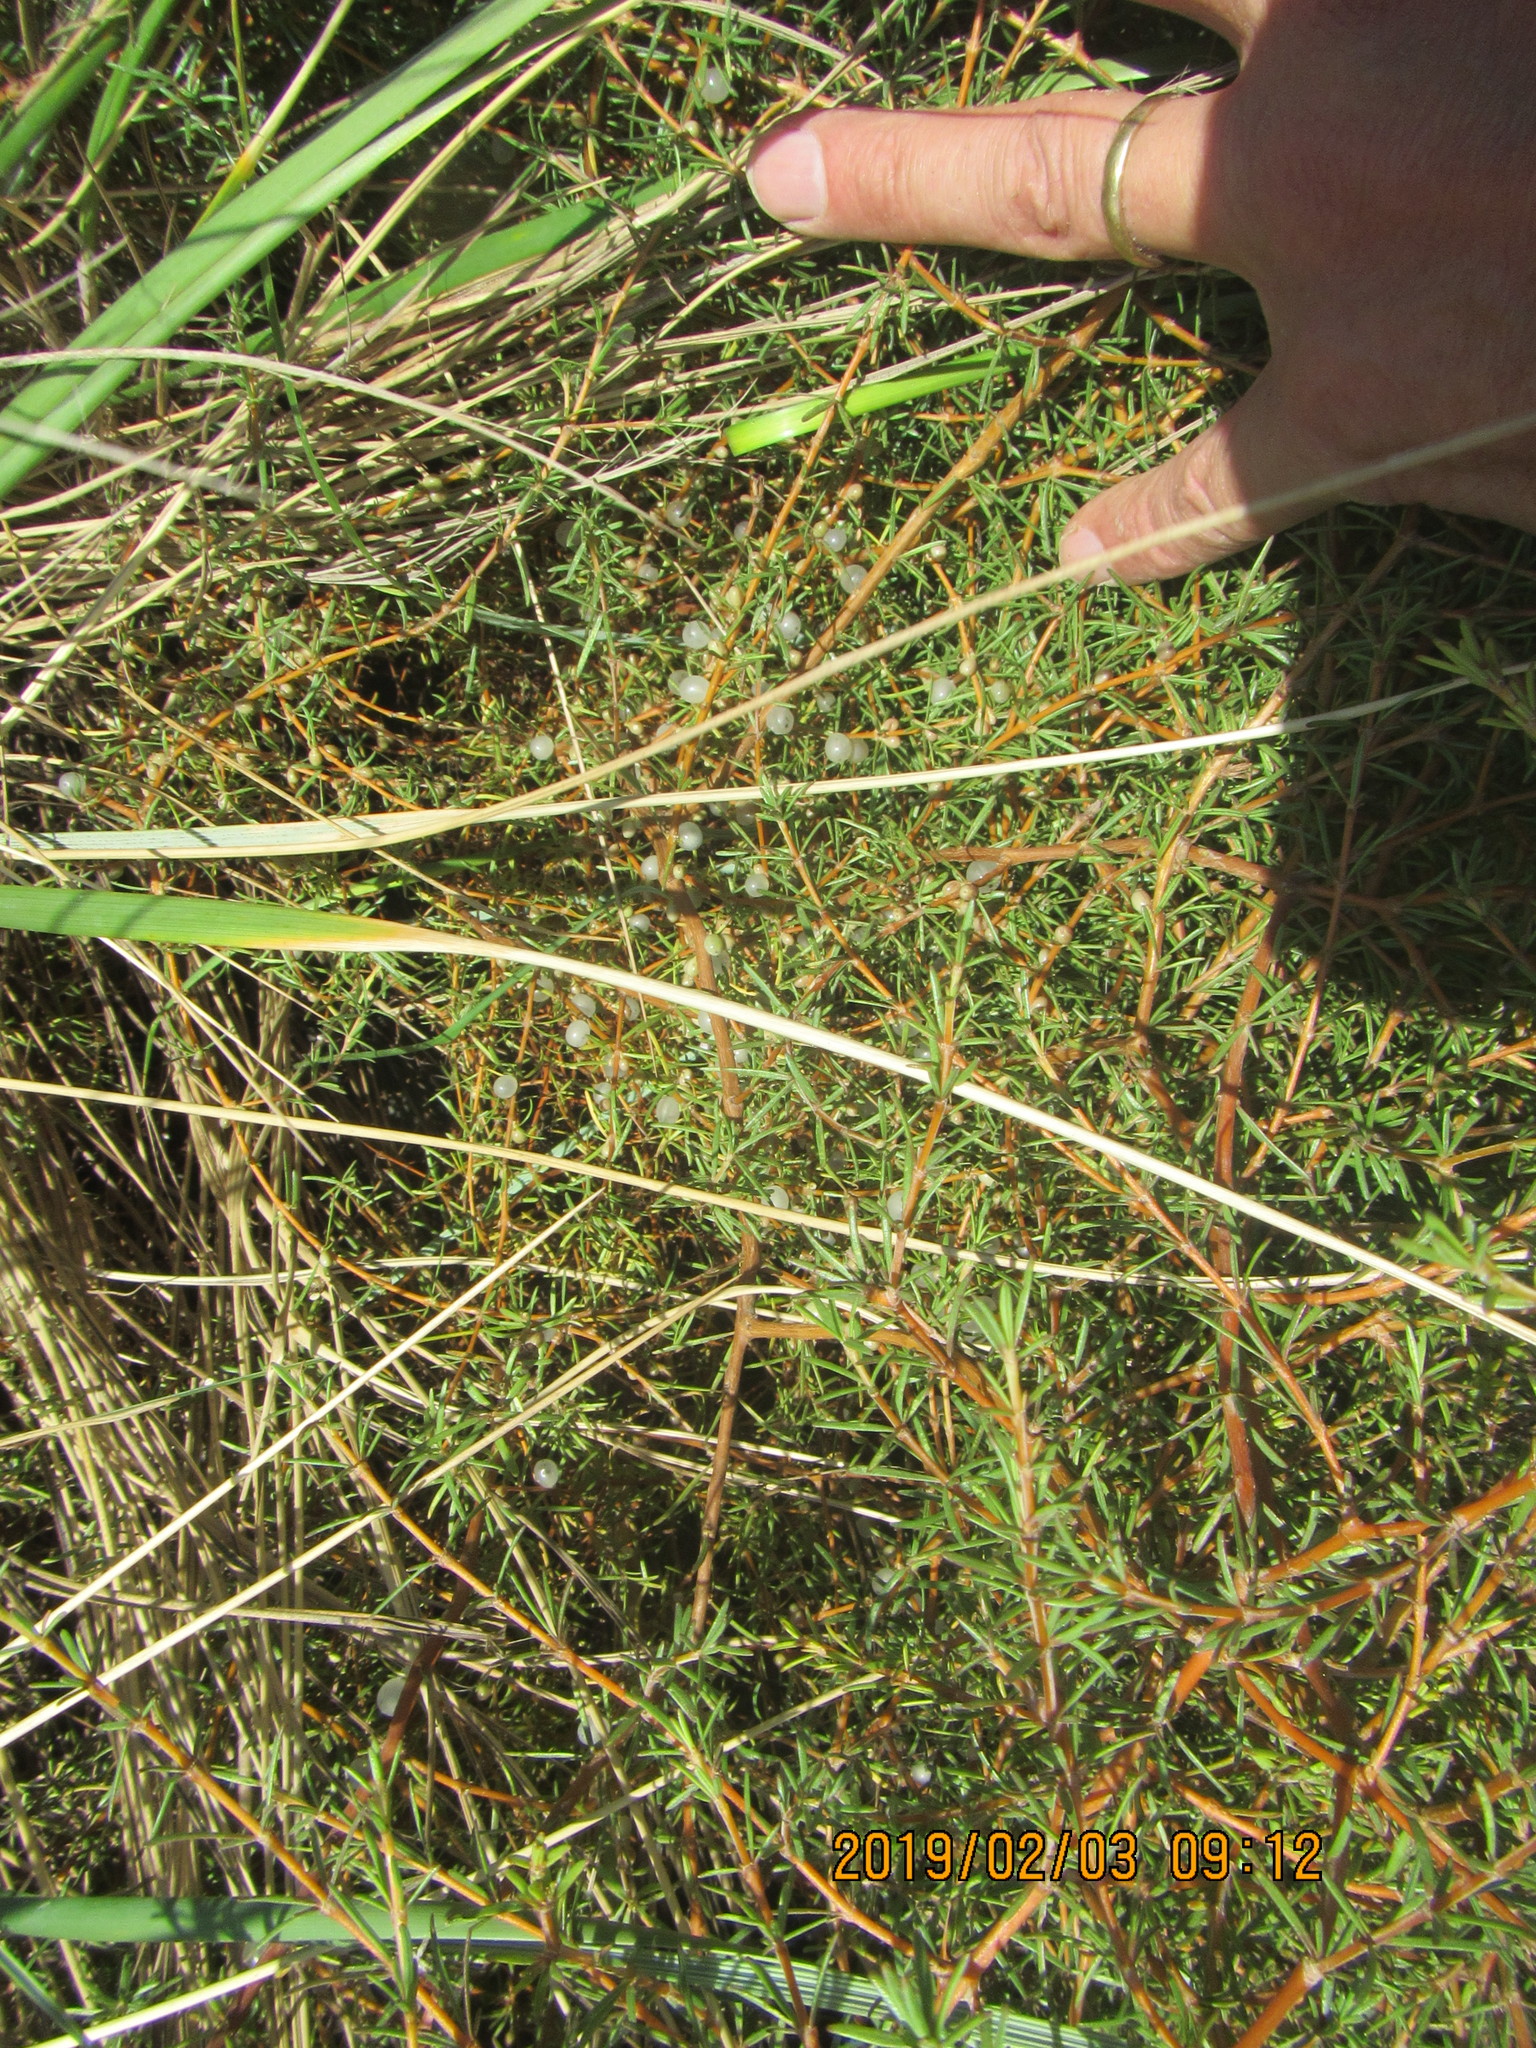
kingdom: Plantae
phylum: Tracheophyta
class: Magnoliopsida
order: Gentianales
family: Rubiaceae
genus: Coprosma
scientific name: Coprosma acerosa
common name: Sand coprosma
